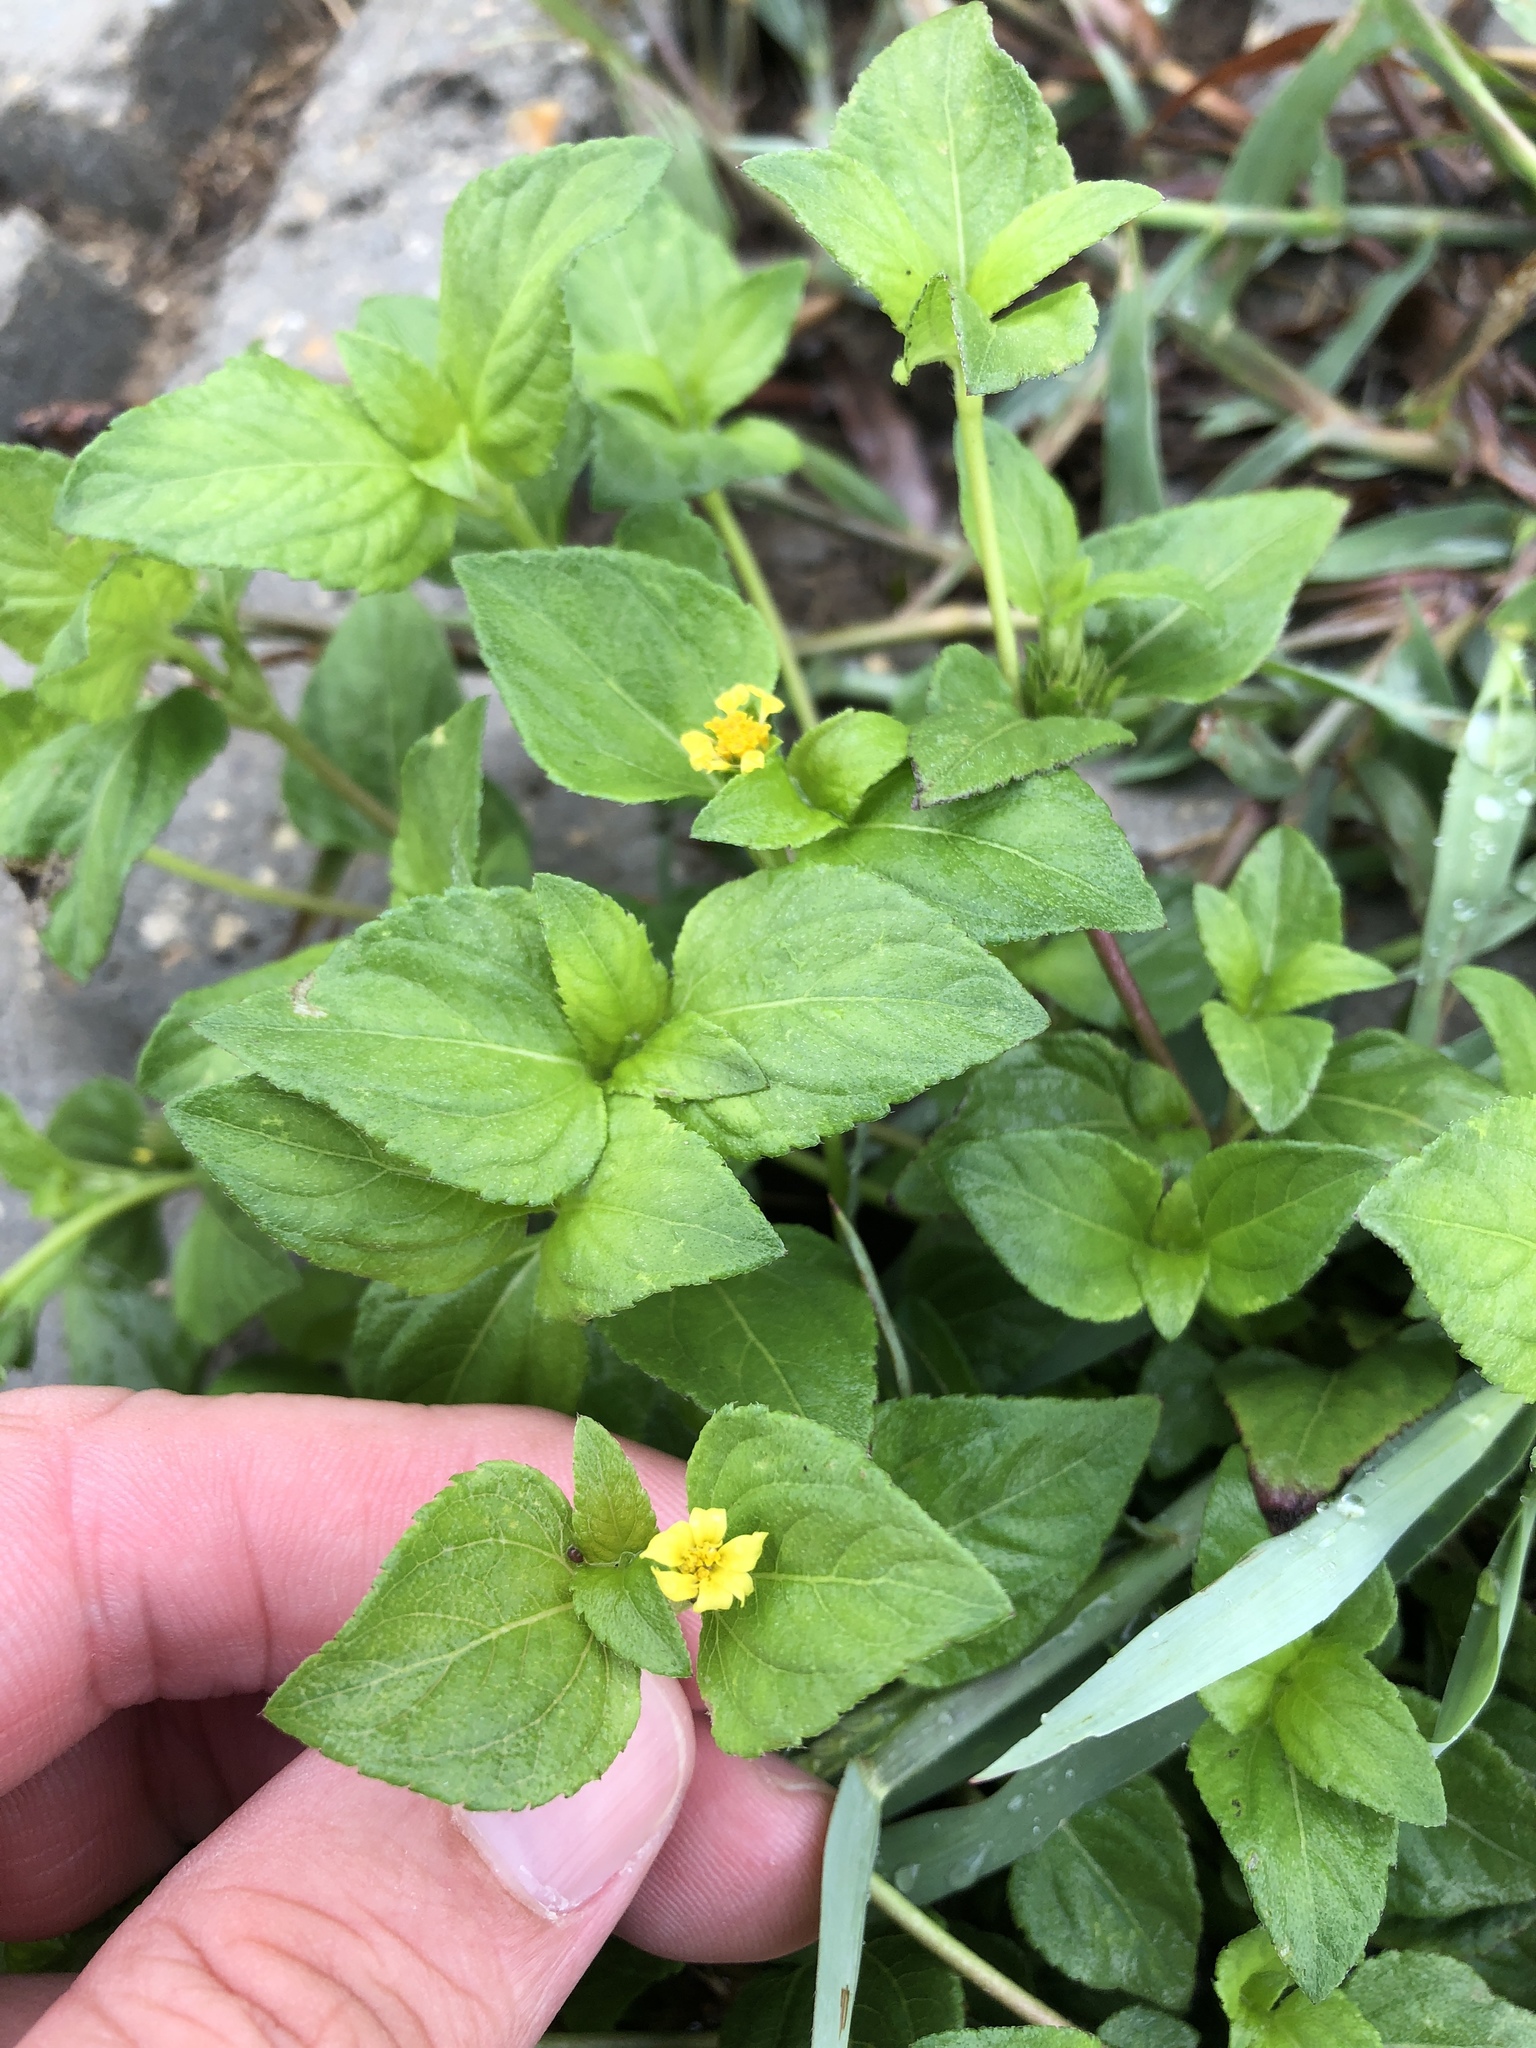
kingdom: Plantae
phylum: Tracheophyta
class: Magnoliopsida
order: Asterales
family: Asteraceae
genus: Calyptocarpus
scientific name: Calyptocarpus vialis
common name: Straggler daisy
